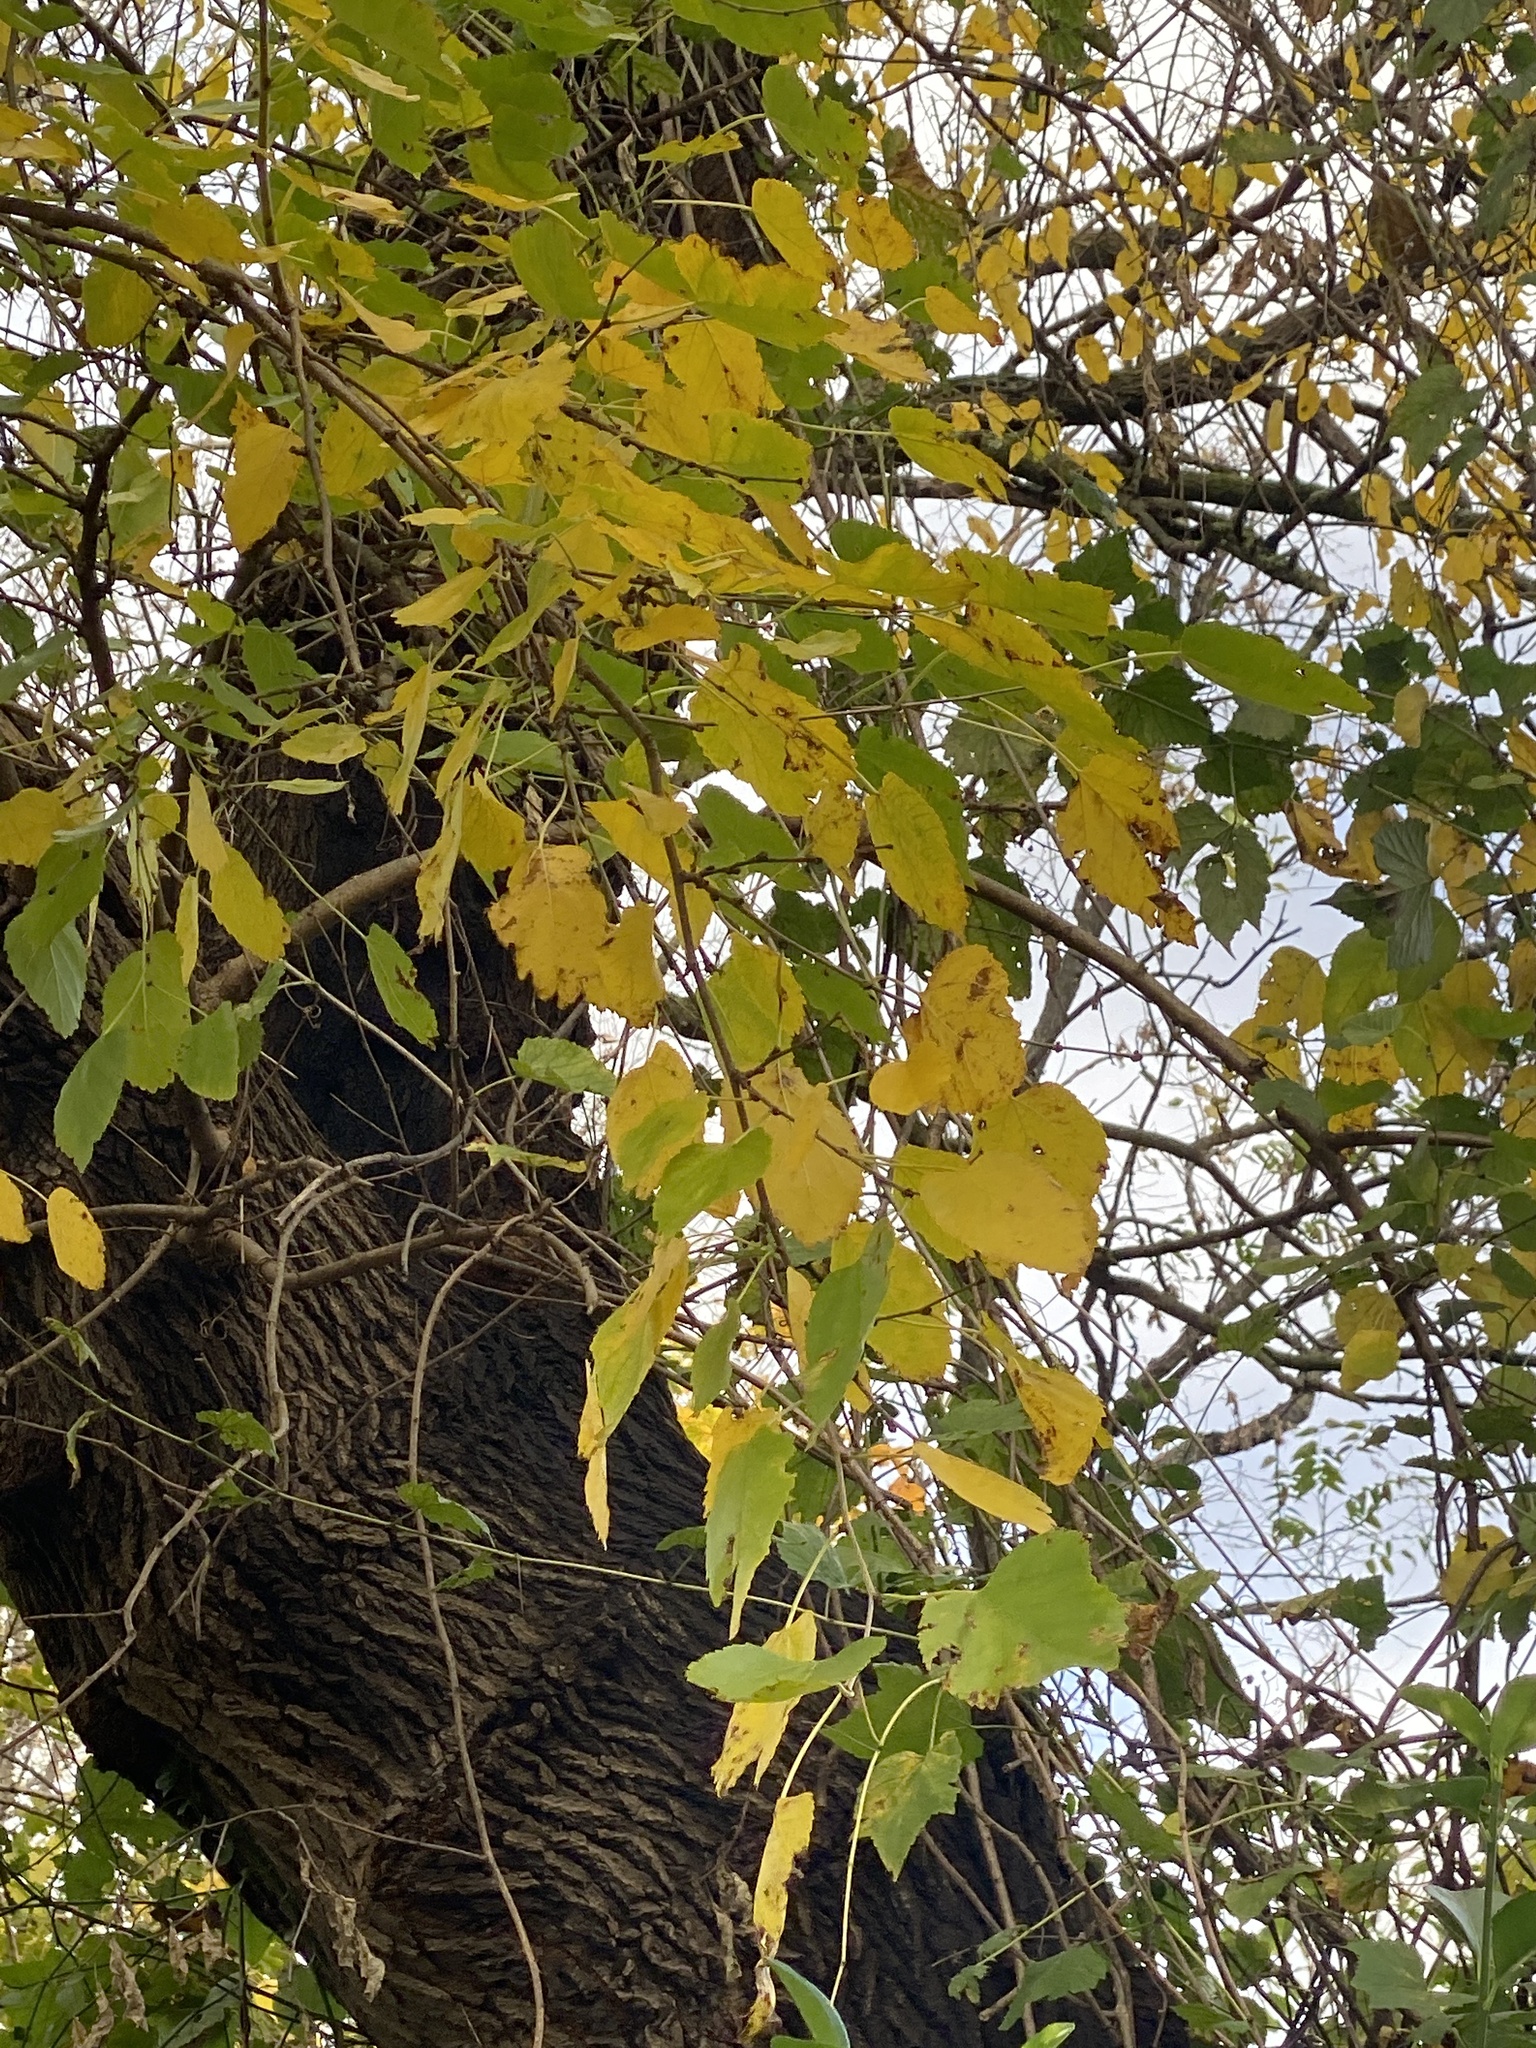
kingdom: Plantae
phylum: Tracheophyta
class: Magnoliopsida
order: Rosales
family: Moraceae
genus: Morus
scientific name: Morus alba
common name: White mulberry
